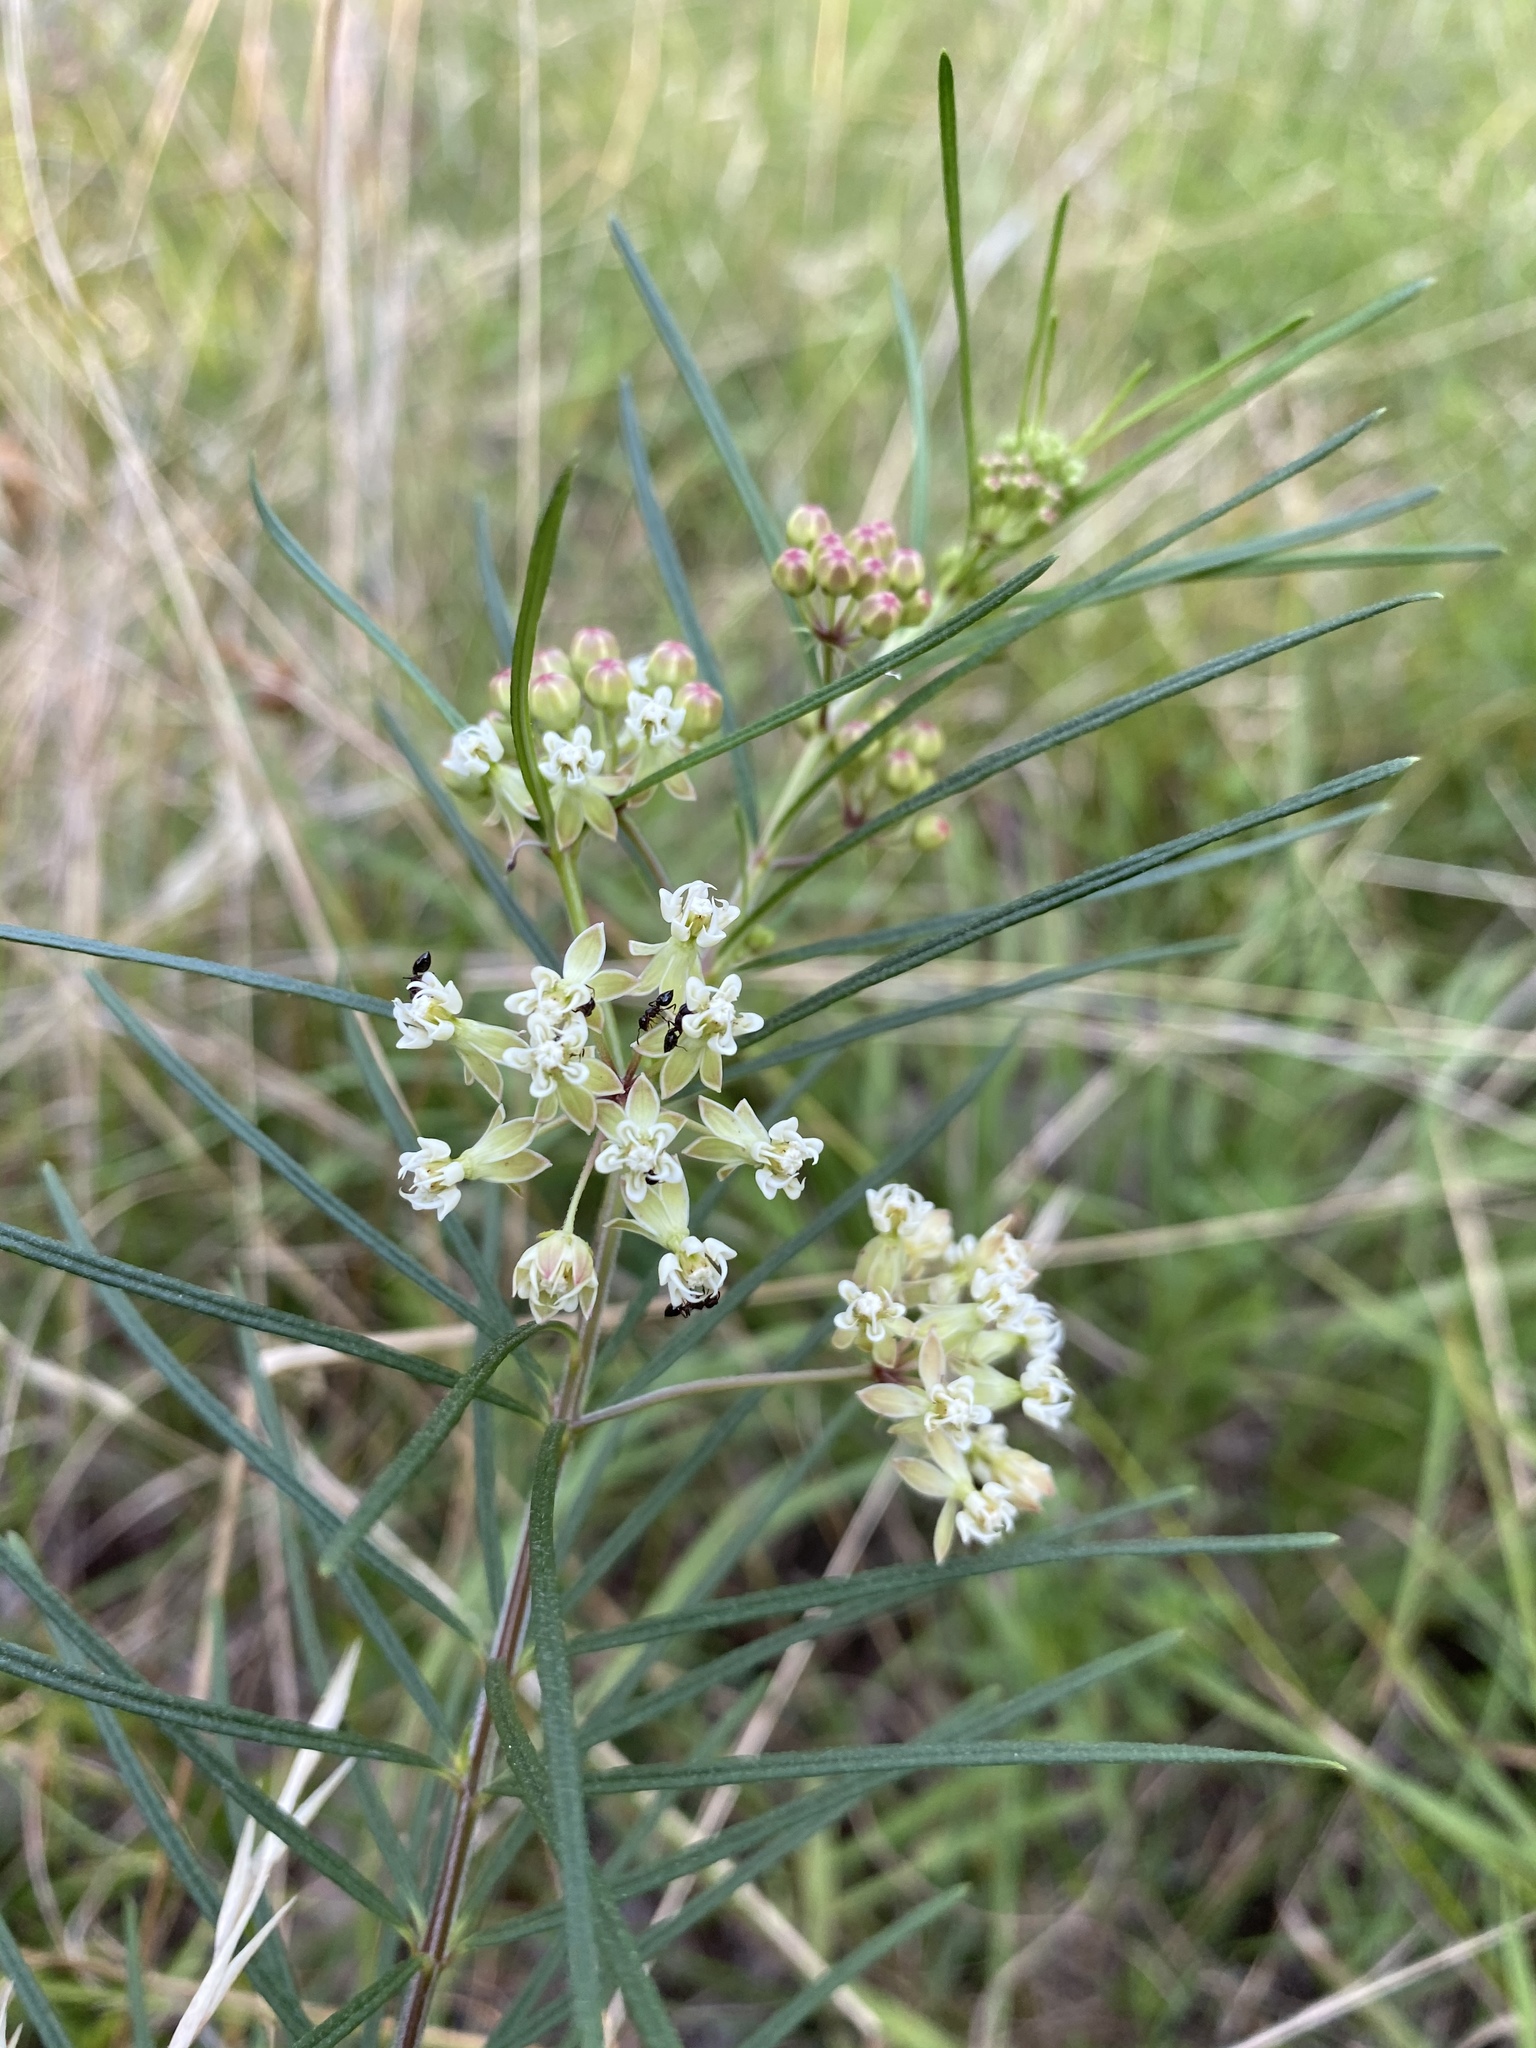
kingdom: Plantae
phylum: Tracheophyta
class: Magnoliopsida
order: Gentianales
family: Apocynaceae
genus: Asclepias
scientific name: Asclepias verticillata
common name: Eastern whorled milkweed
